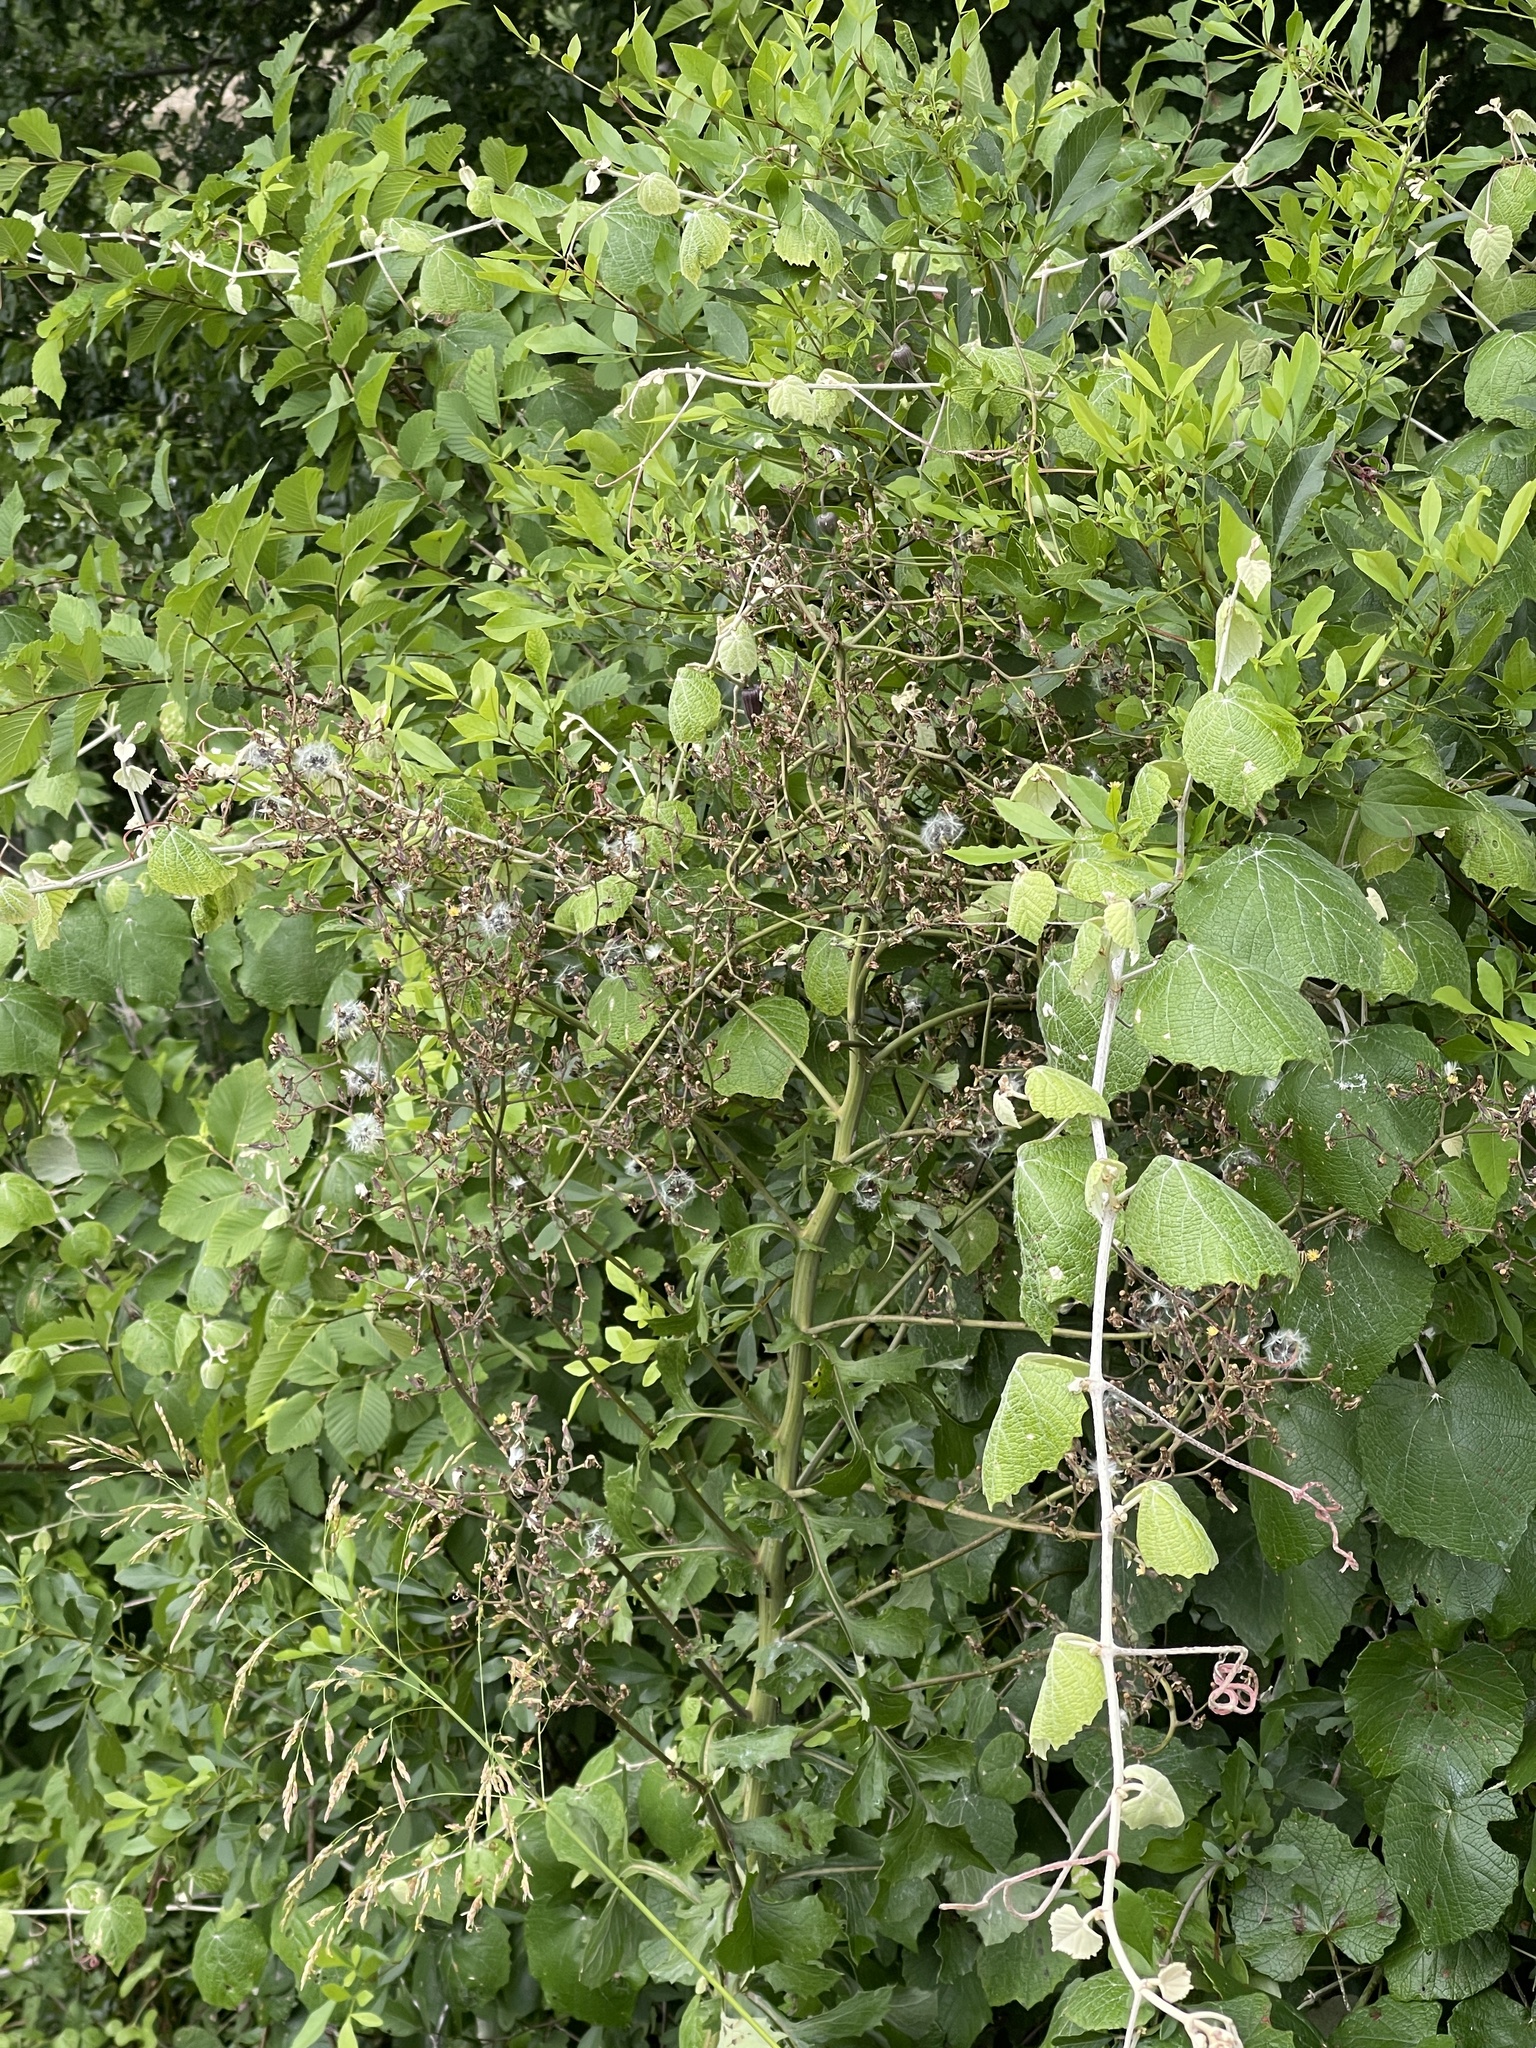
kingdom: Plantae
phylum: Tracheophyta
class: Magnoliopsida
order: Vitales
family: Vitaceae
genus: Vitis
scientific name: Vitis mustangensis
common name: Mustang grape
